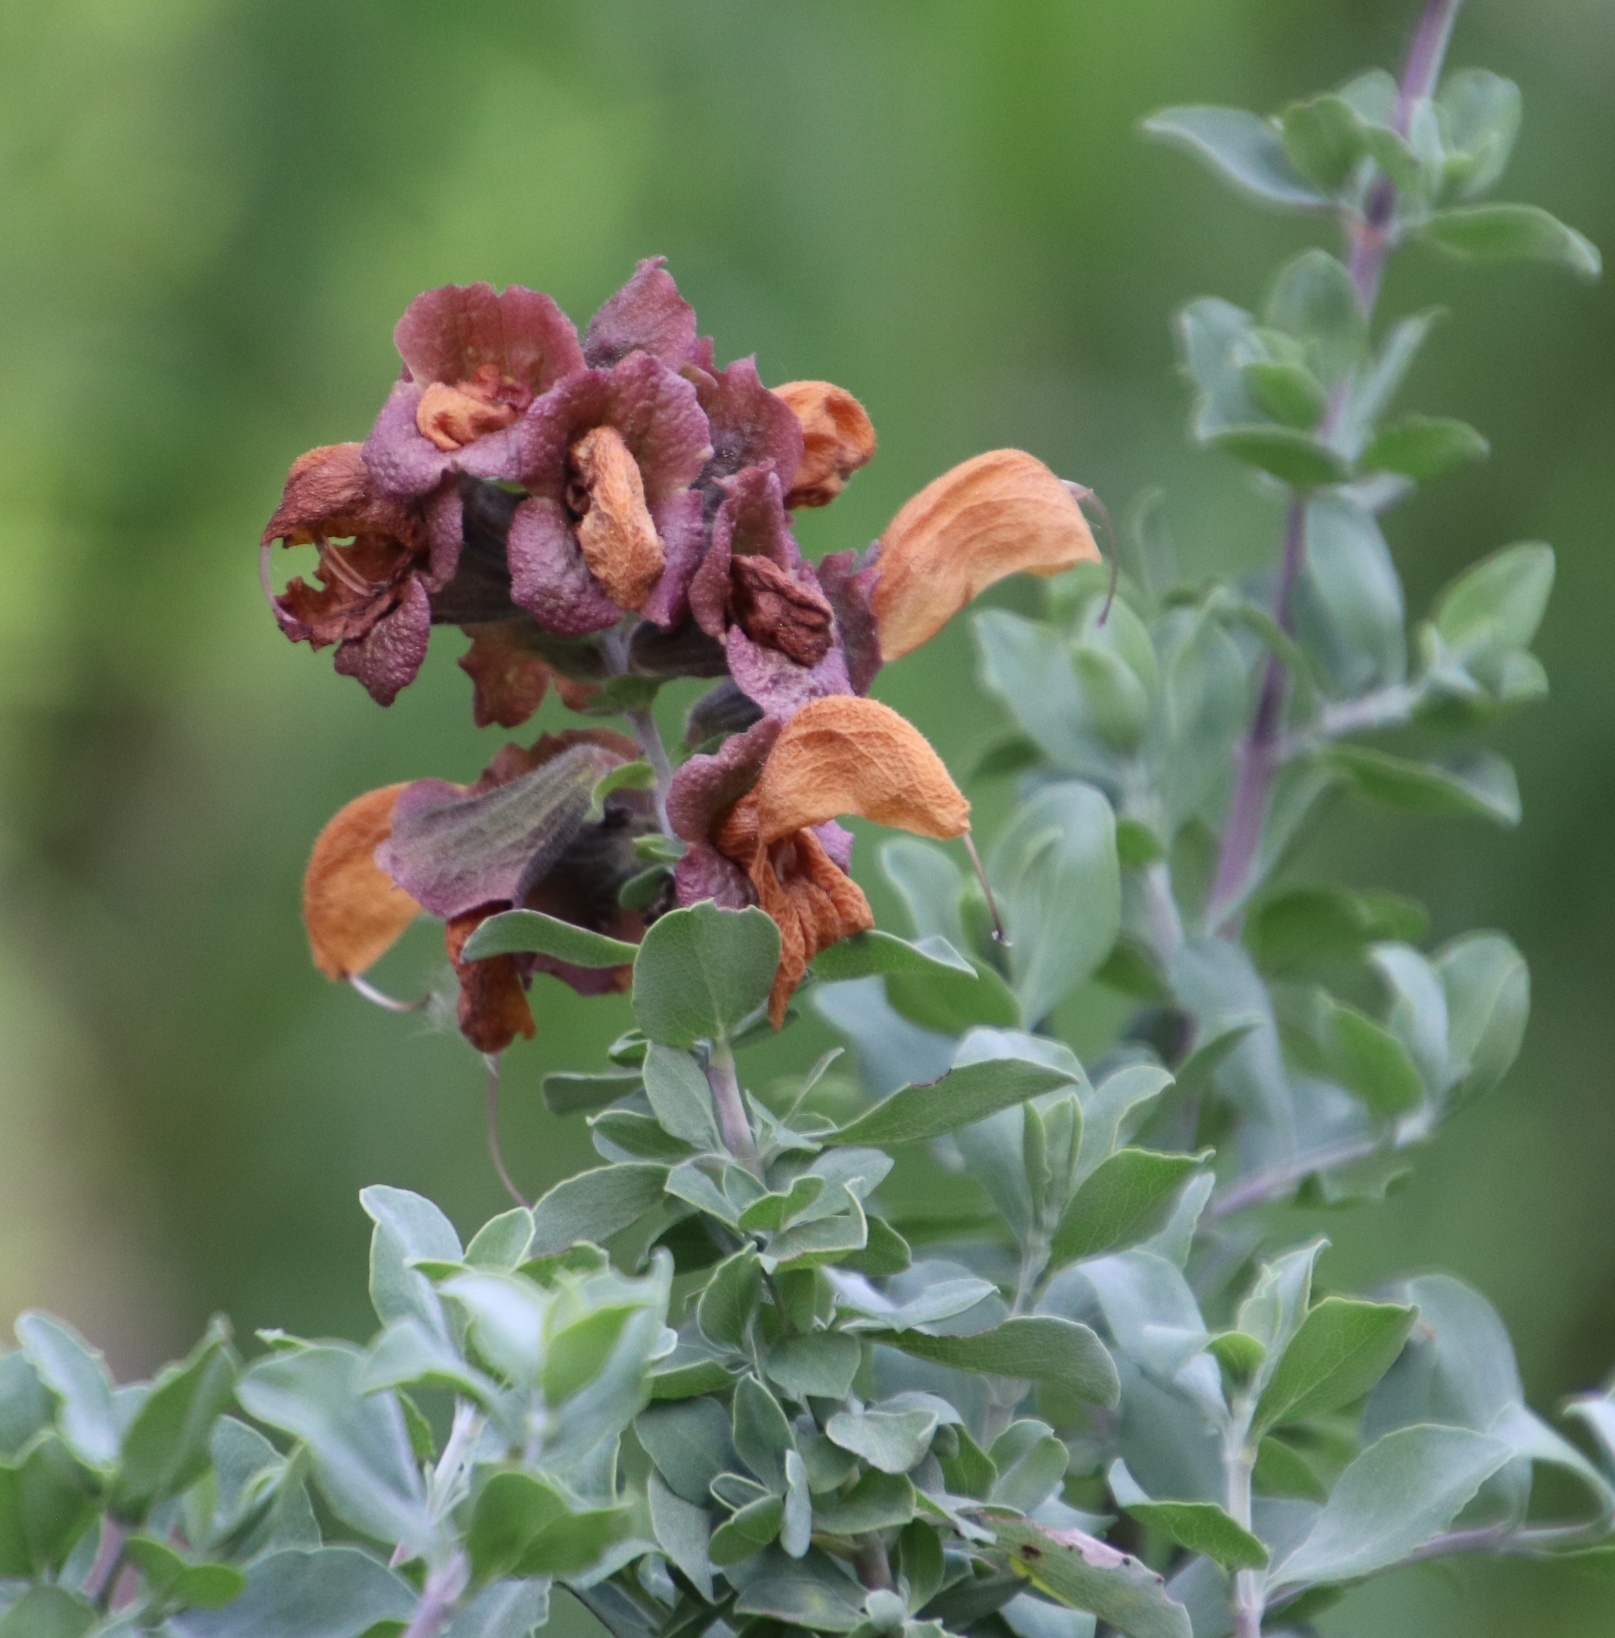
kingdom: Plantae
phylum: Tracheophyta
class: Magnoliopsida
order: Lamiales
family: Lamiaceae
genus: Salvia
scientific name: Salvia aurea
